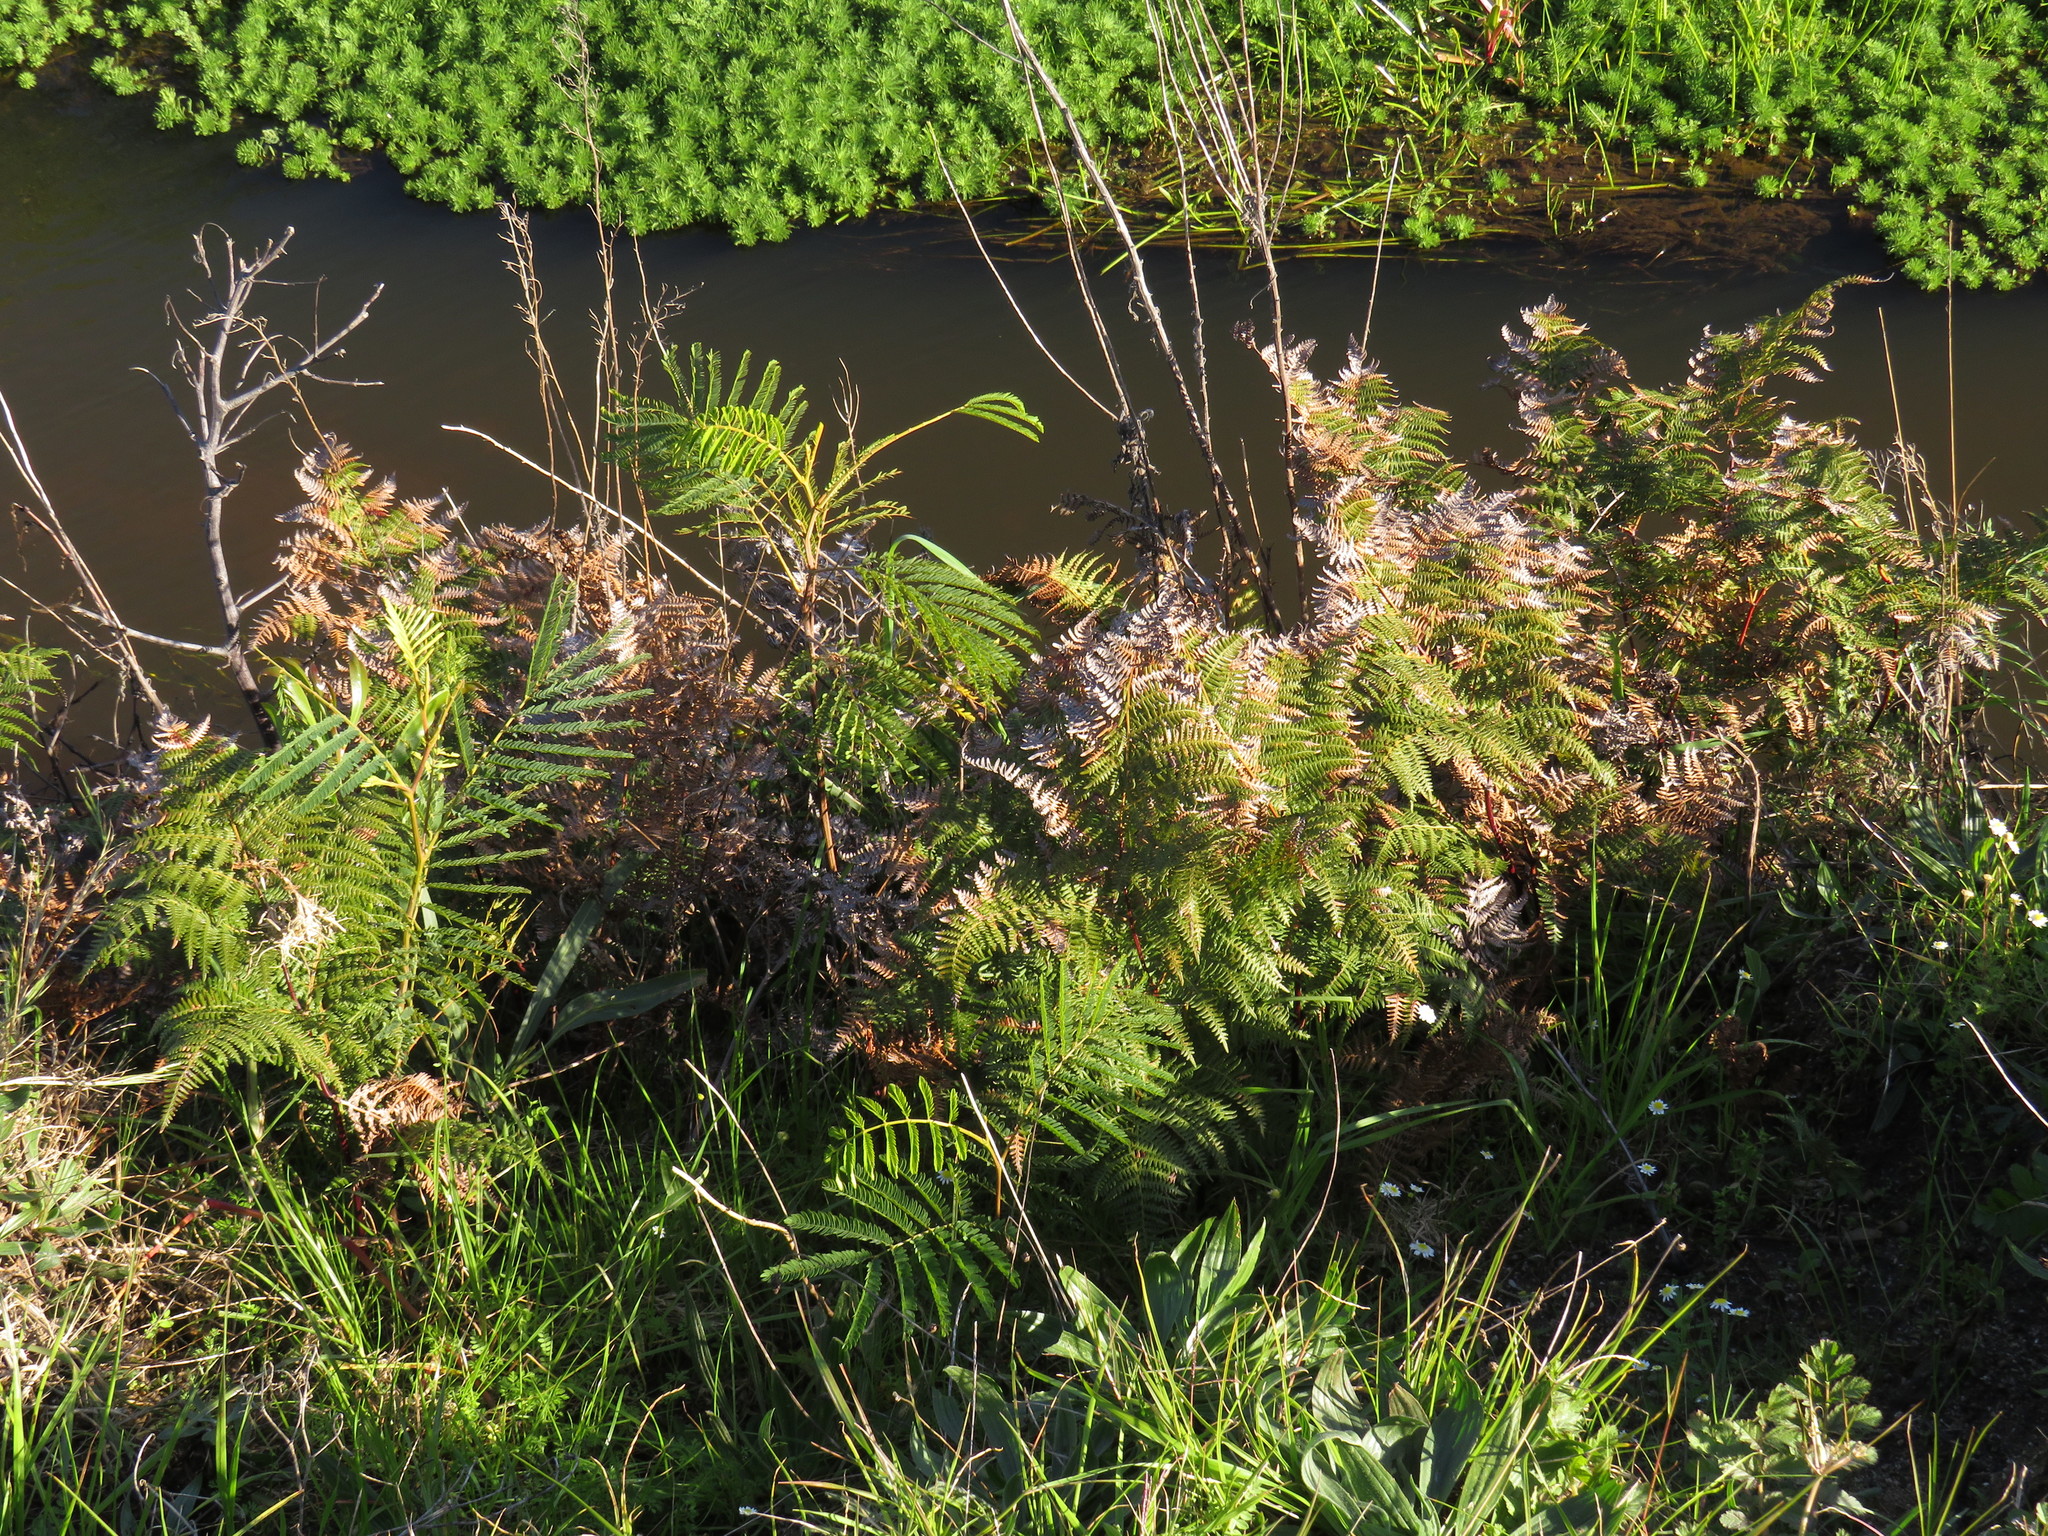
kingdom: Plantae
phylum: Tracheophyta
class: Polypodiopsida
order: Polypodiales
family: Dennstaedtiaceae
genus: Pteridium
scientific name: Pteridium aquilinum
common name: Bracken
